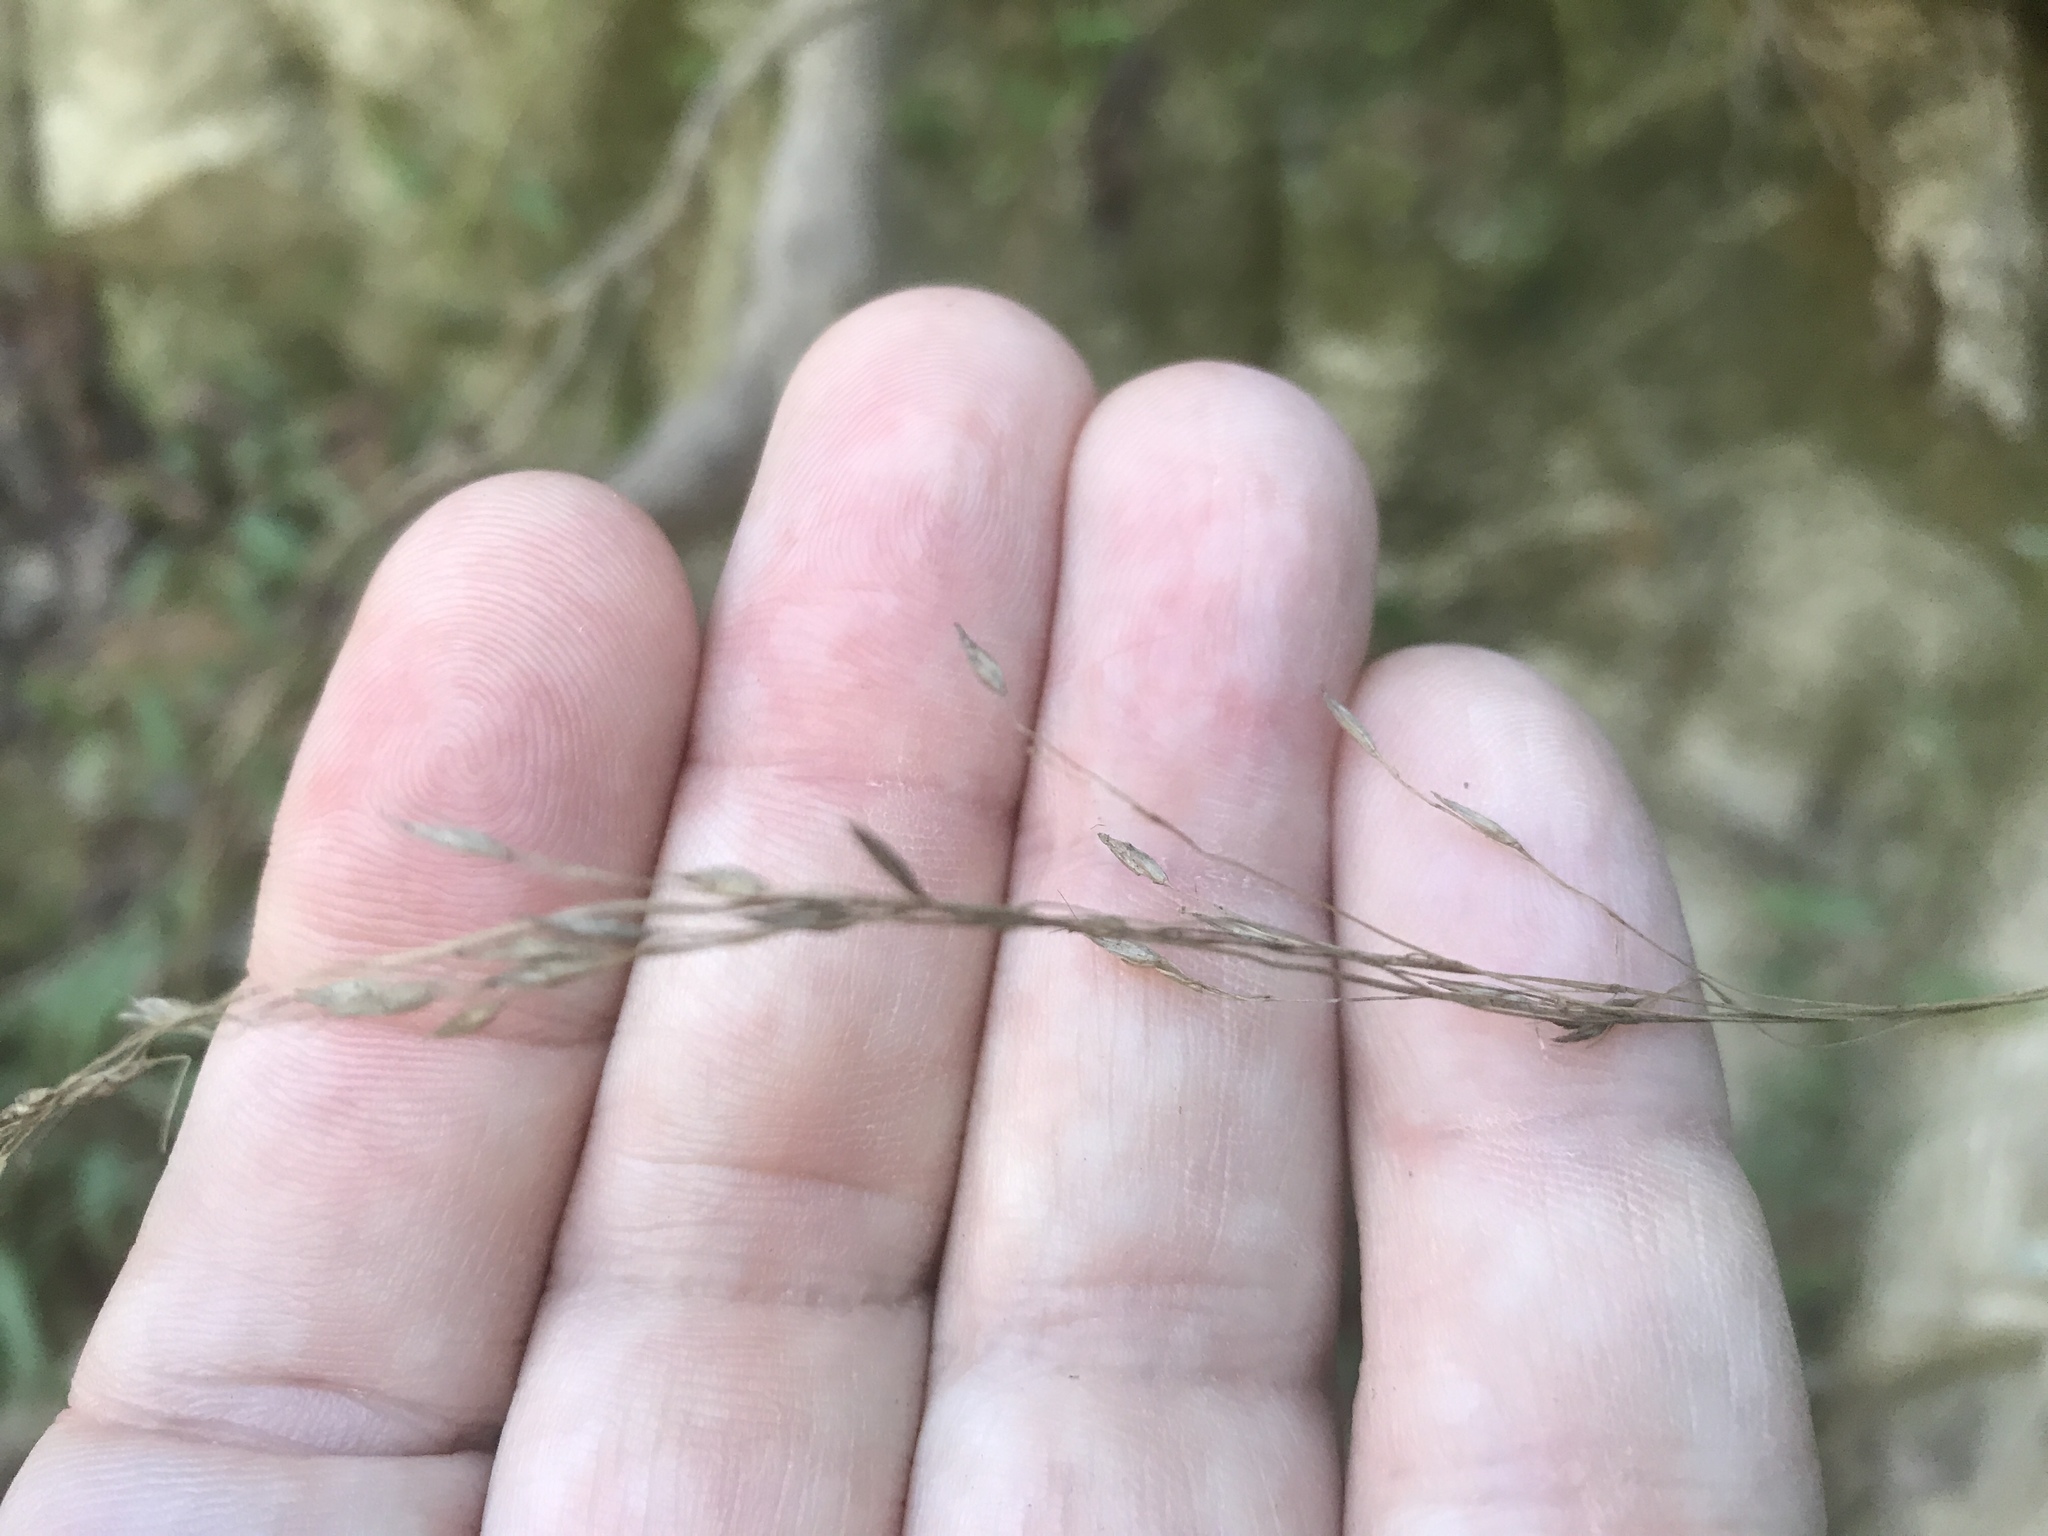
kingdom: Plantae
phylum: Tracheophyta
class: Liliopsida
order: Poales
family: Poaceae
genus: Avenella
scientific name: Avenella flexuosa
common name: Wavy hairgrass
